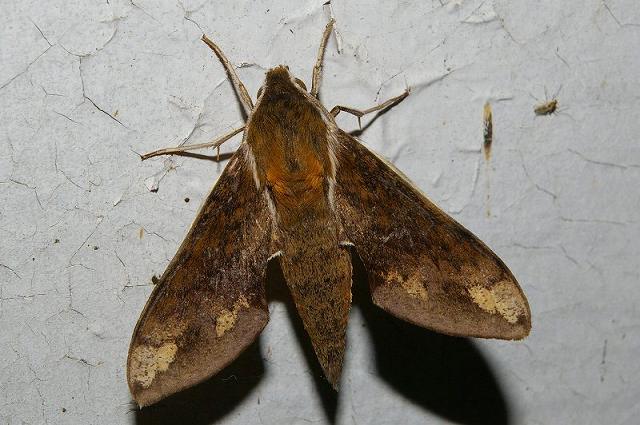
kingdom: Animalia
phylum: Arthropoda
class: Insecta
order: Lepidoptera
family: Sphingidae
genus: Rhagastis
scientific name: Rhagastis trilineata
